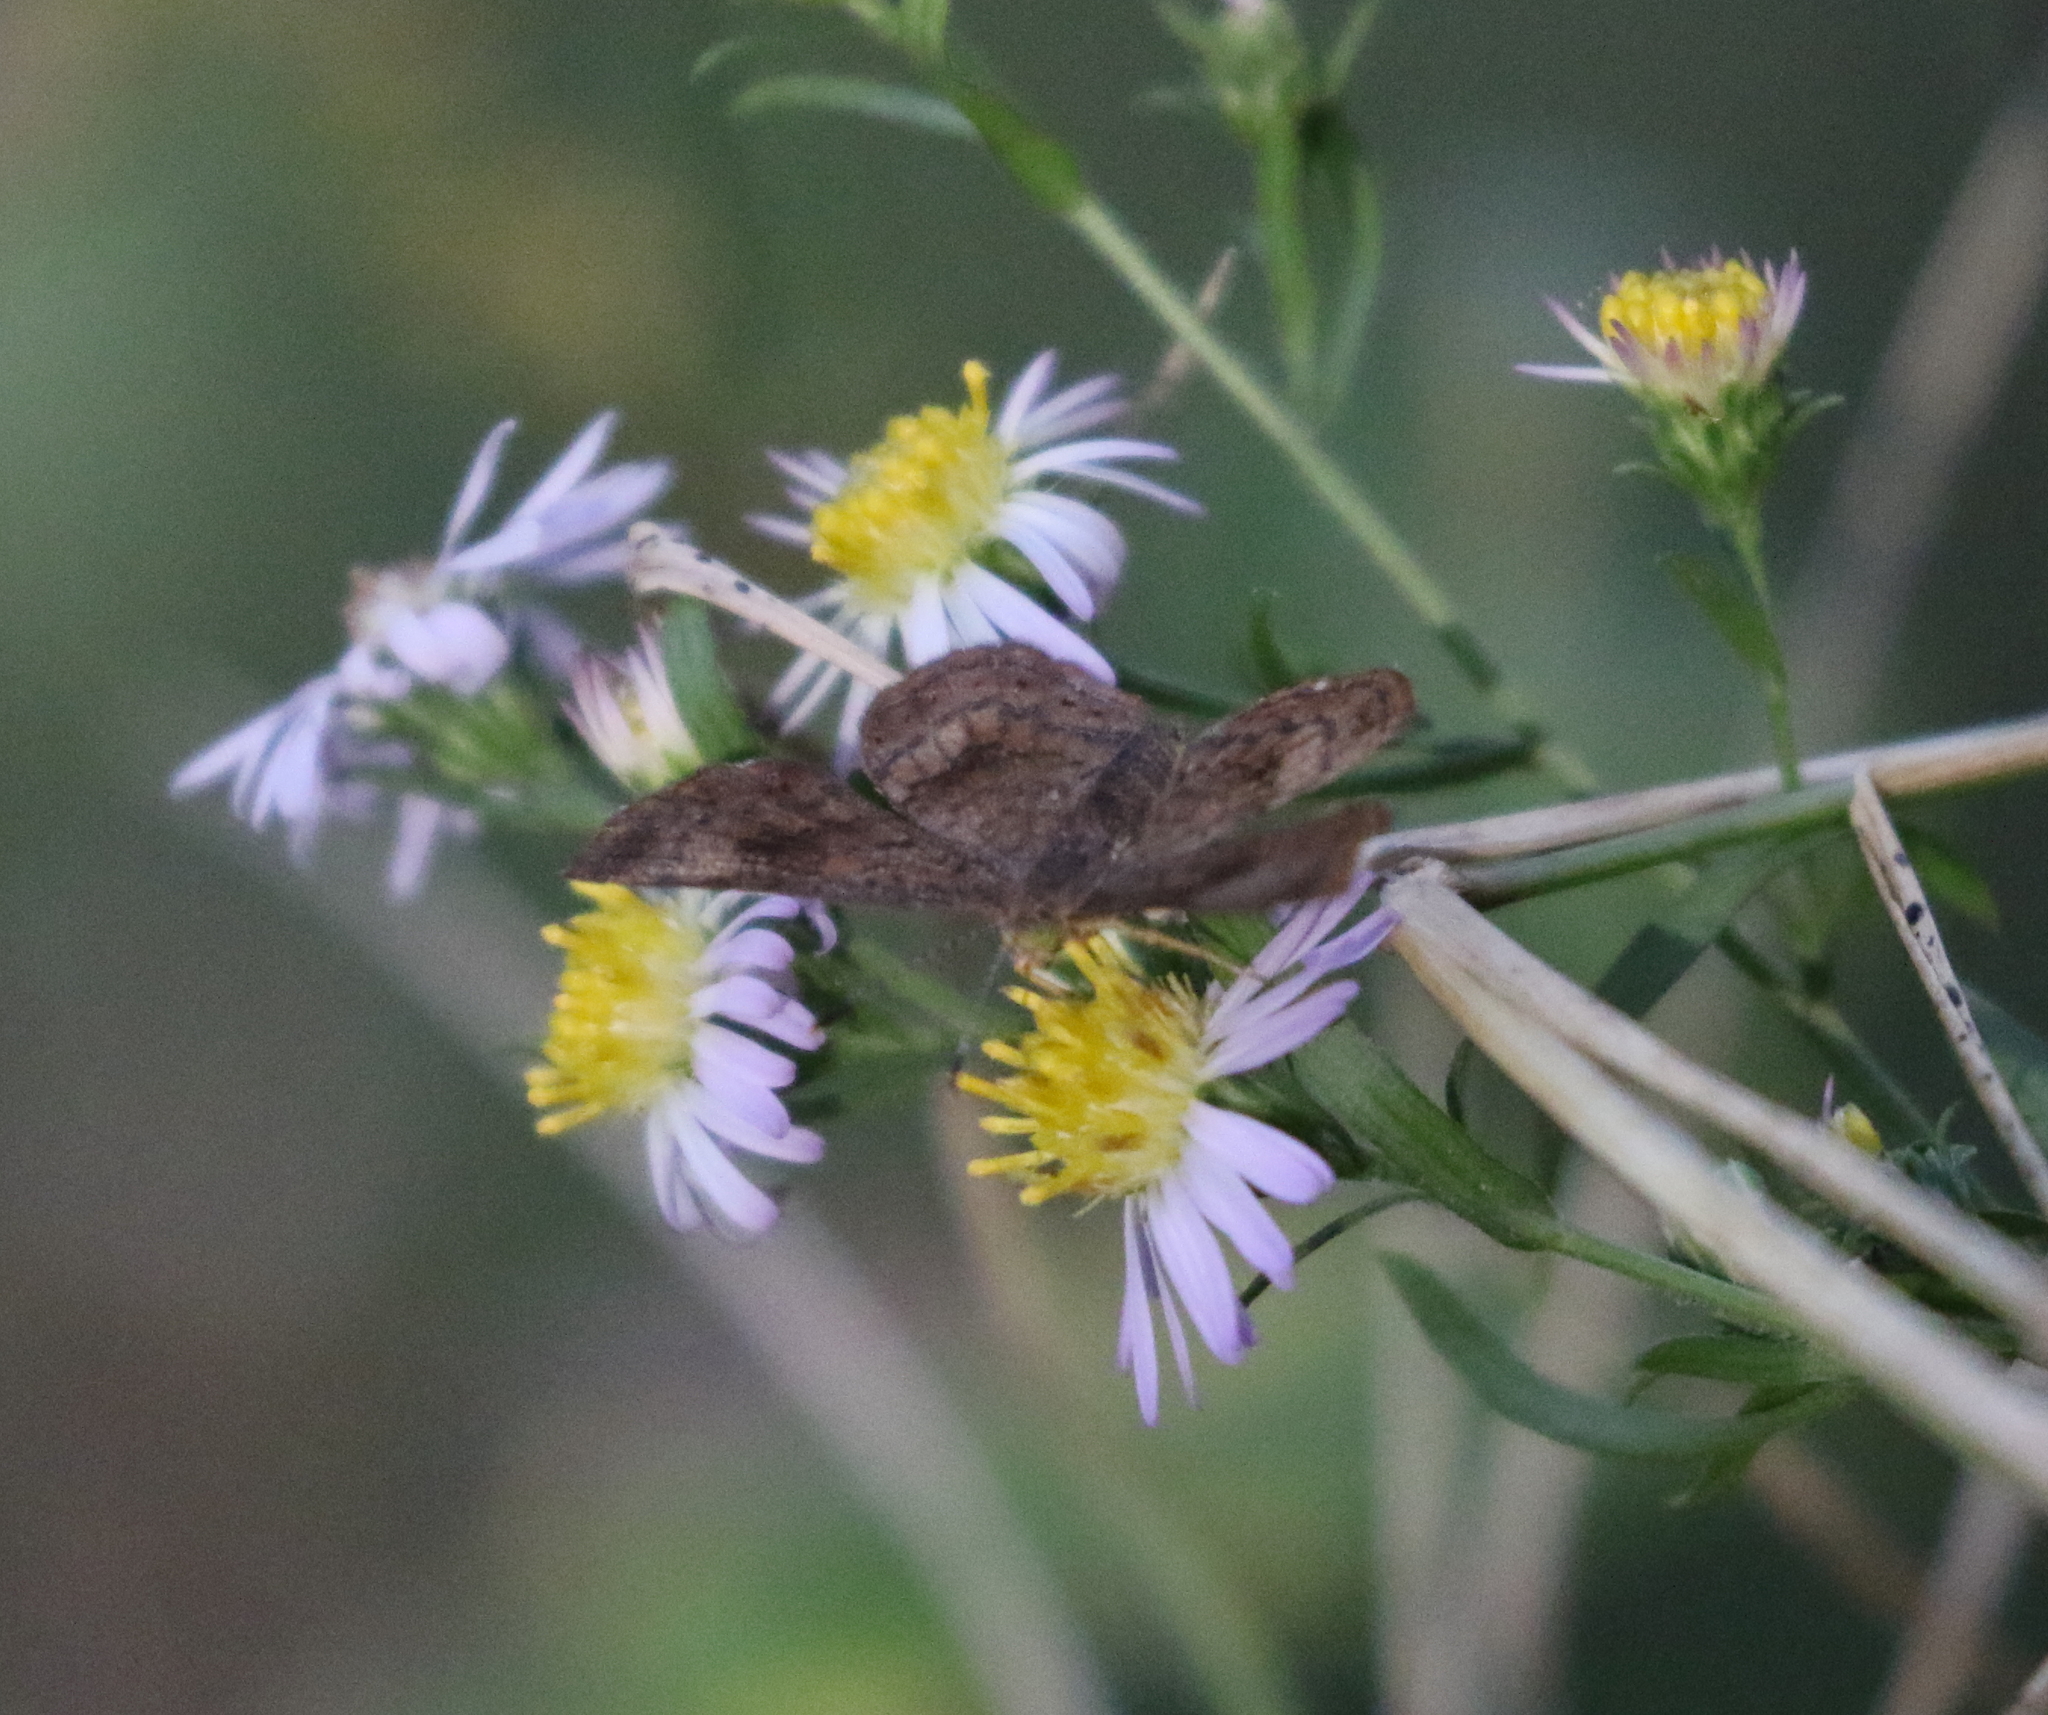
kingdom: Animalia
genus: Calephelis
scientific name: Calephelis nemesis
